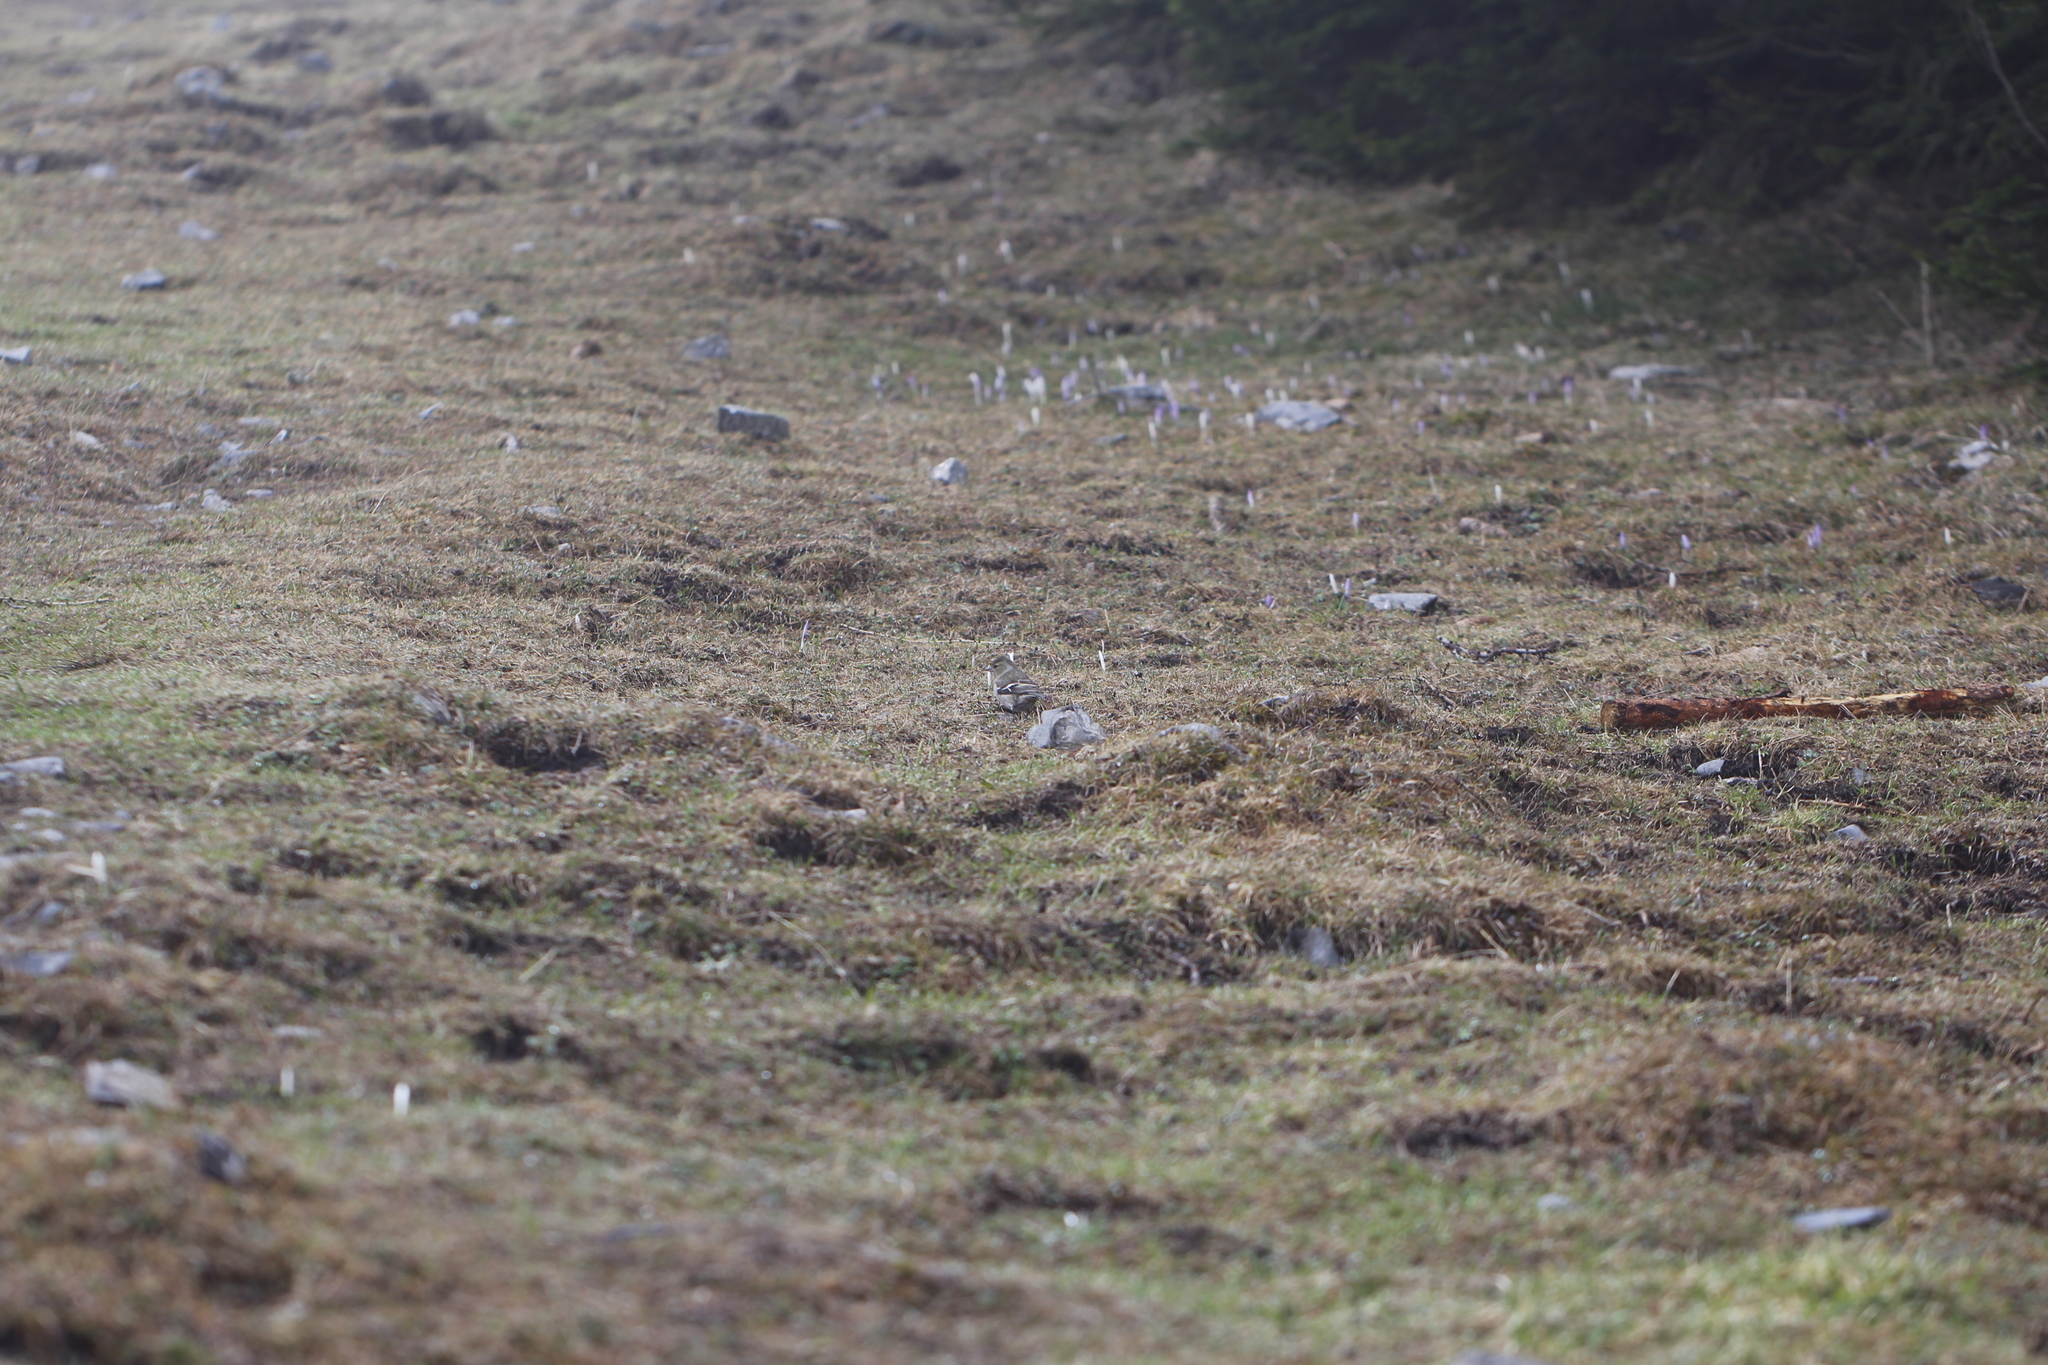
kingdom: Animalia
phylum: Chordata
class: Aves
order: Passeriformes
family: Fringillidae
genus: Fringilla
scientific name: Fringilla coelebs
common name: Common chaffinch
